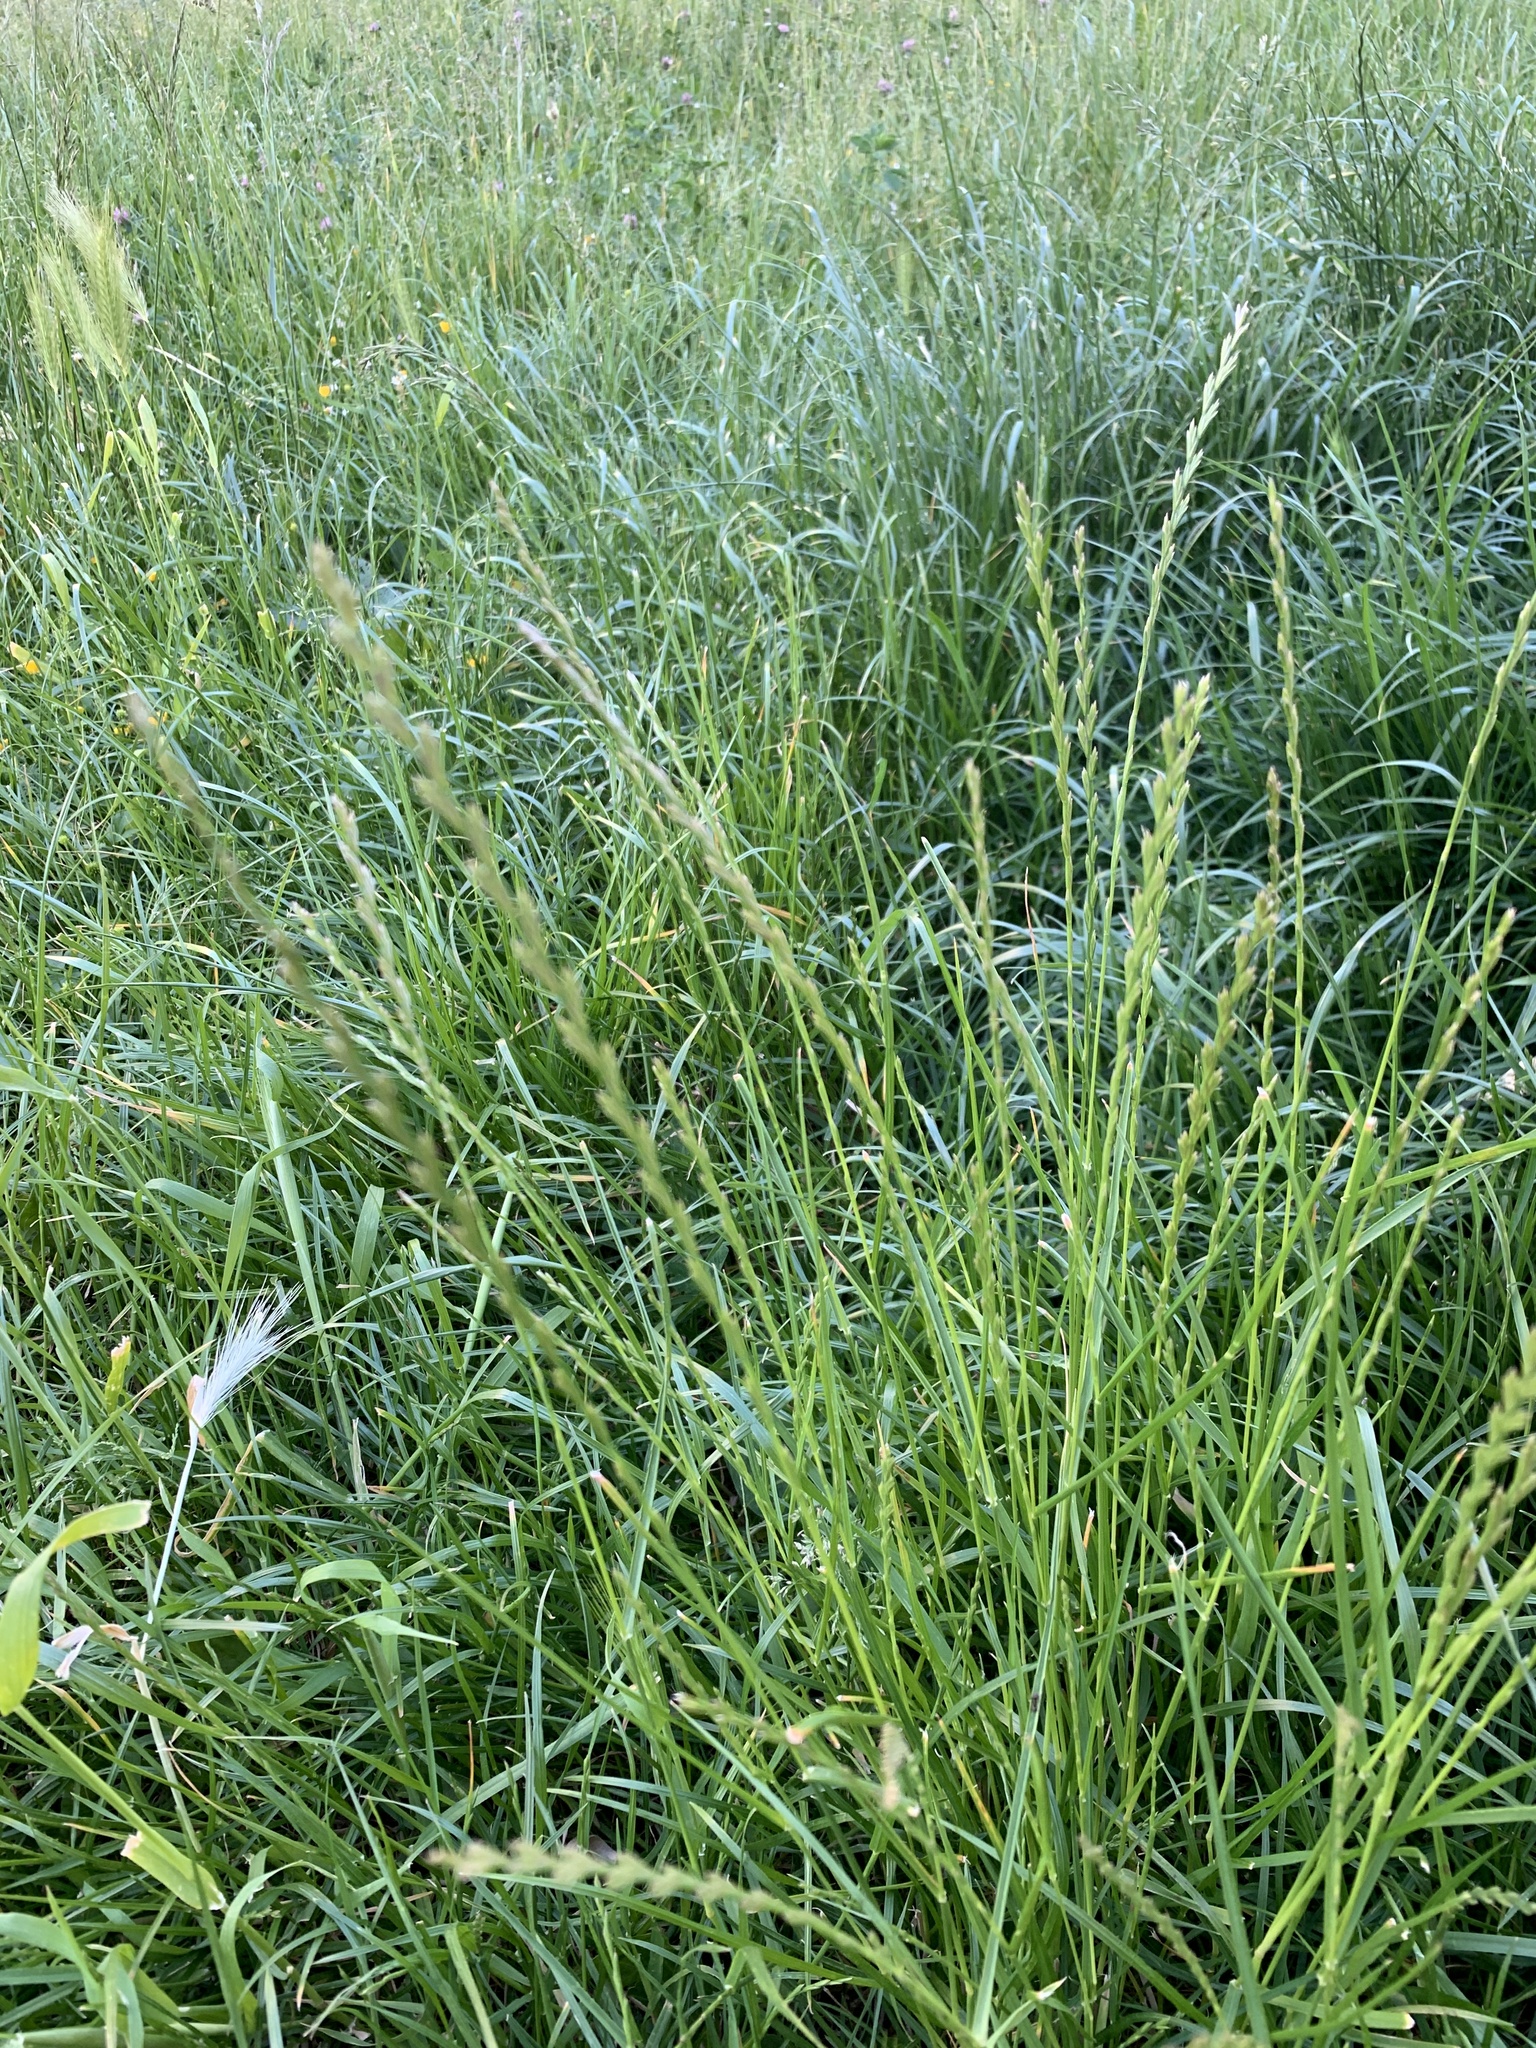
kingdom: Plantae
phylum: Tracheophyta
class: Liliopsida
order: Poales
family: Poaceae
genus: Lolium
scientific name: Lolium perenne
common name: Perennial ryegrass
